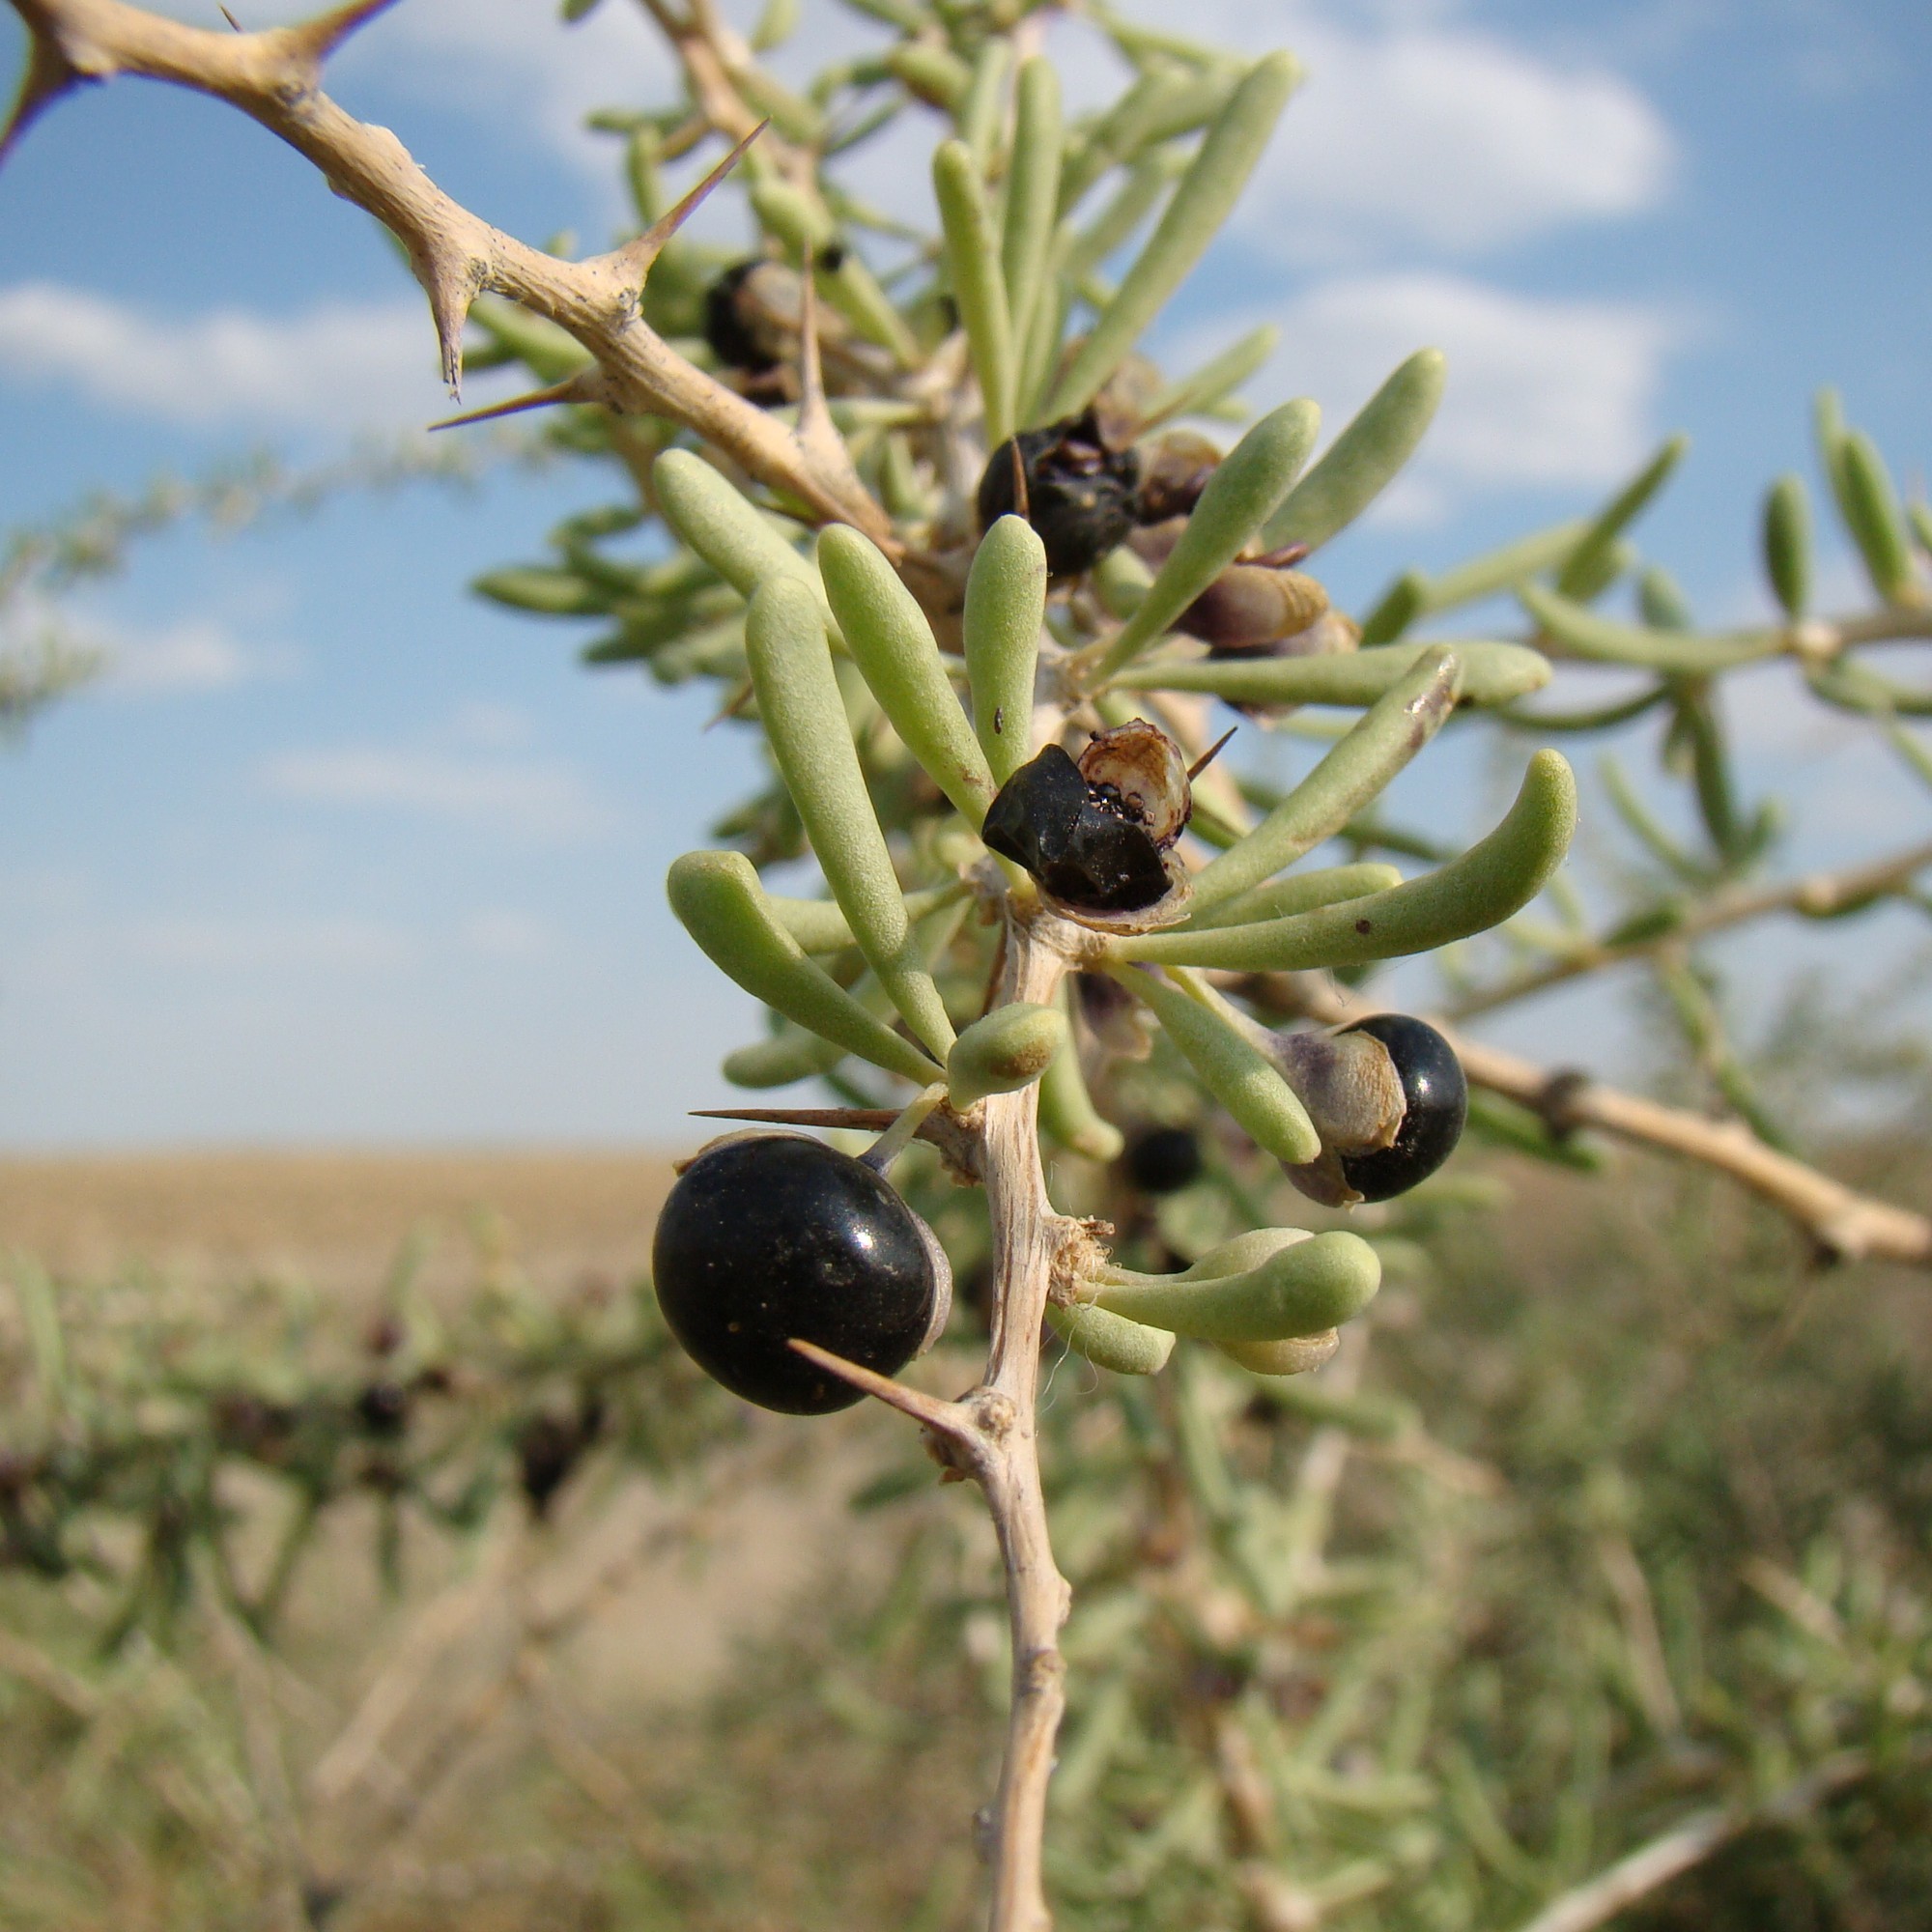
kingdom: Plantae
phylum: Tracheophyta
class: Magnoliopsida
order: Solanales
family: Solanaceae
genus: Lycium
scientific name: Lycium ruthenicum
